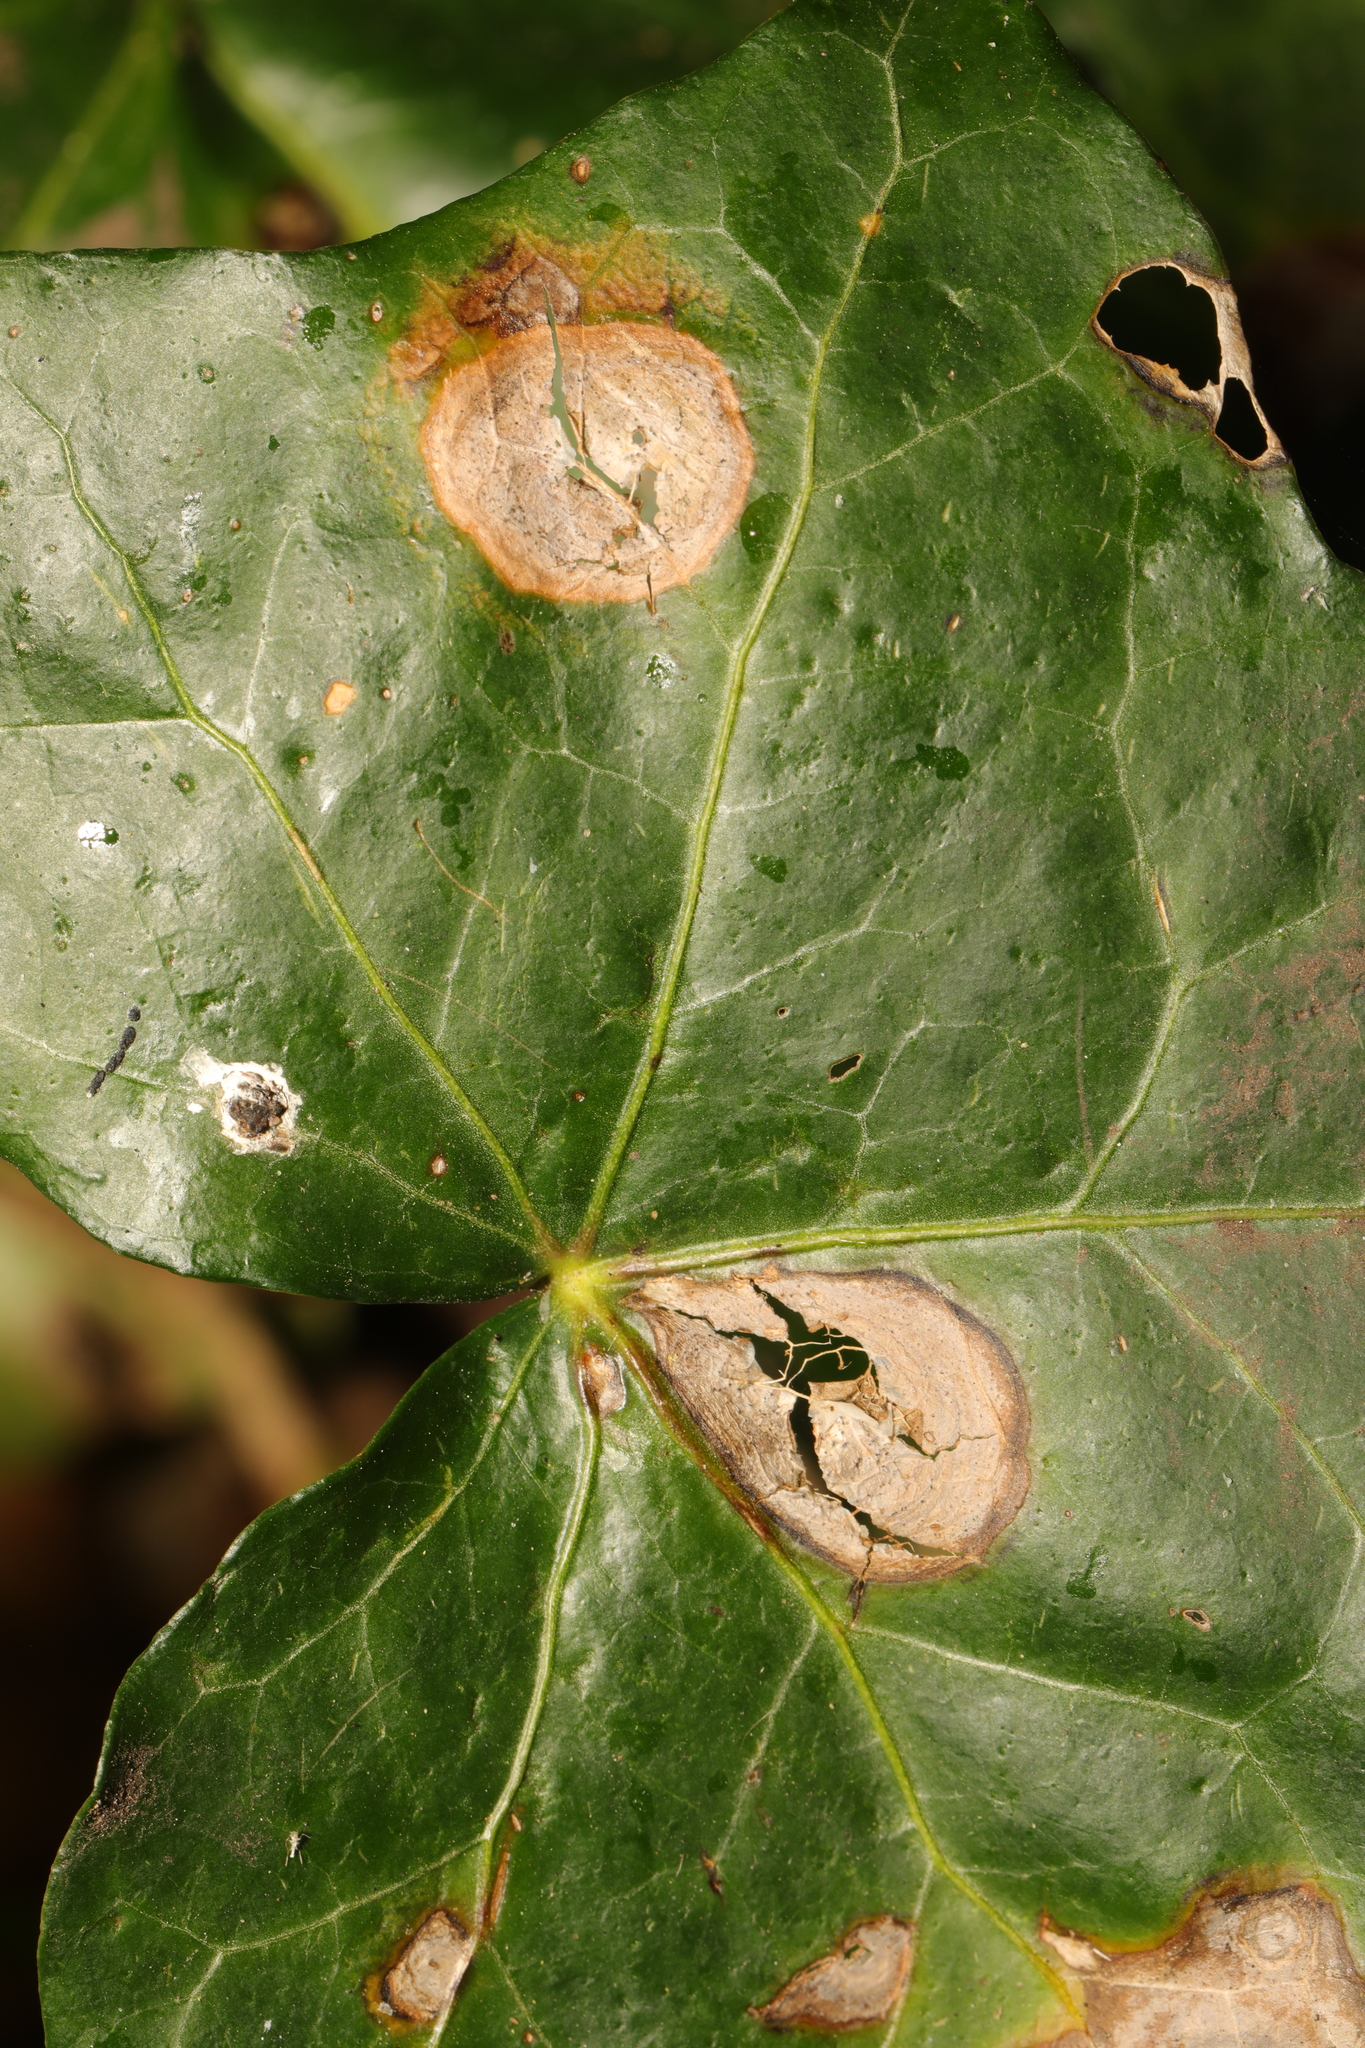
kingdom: Fungi
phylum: Ascomycota
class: Dothideomycetes
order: Pleosporales
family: Didymellaceae
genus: Boeremia
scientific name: Boeremia hedericola
